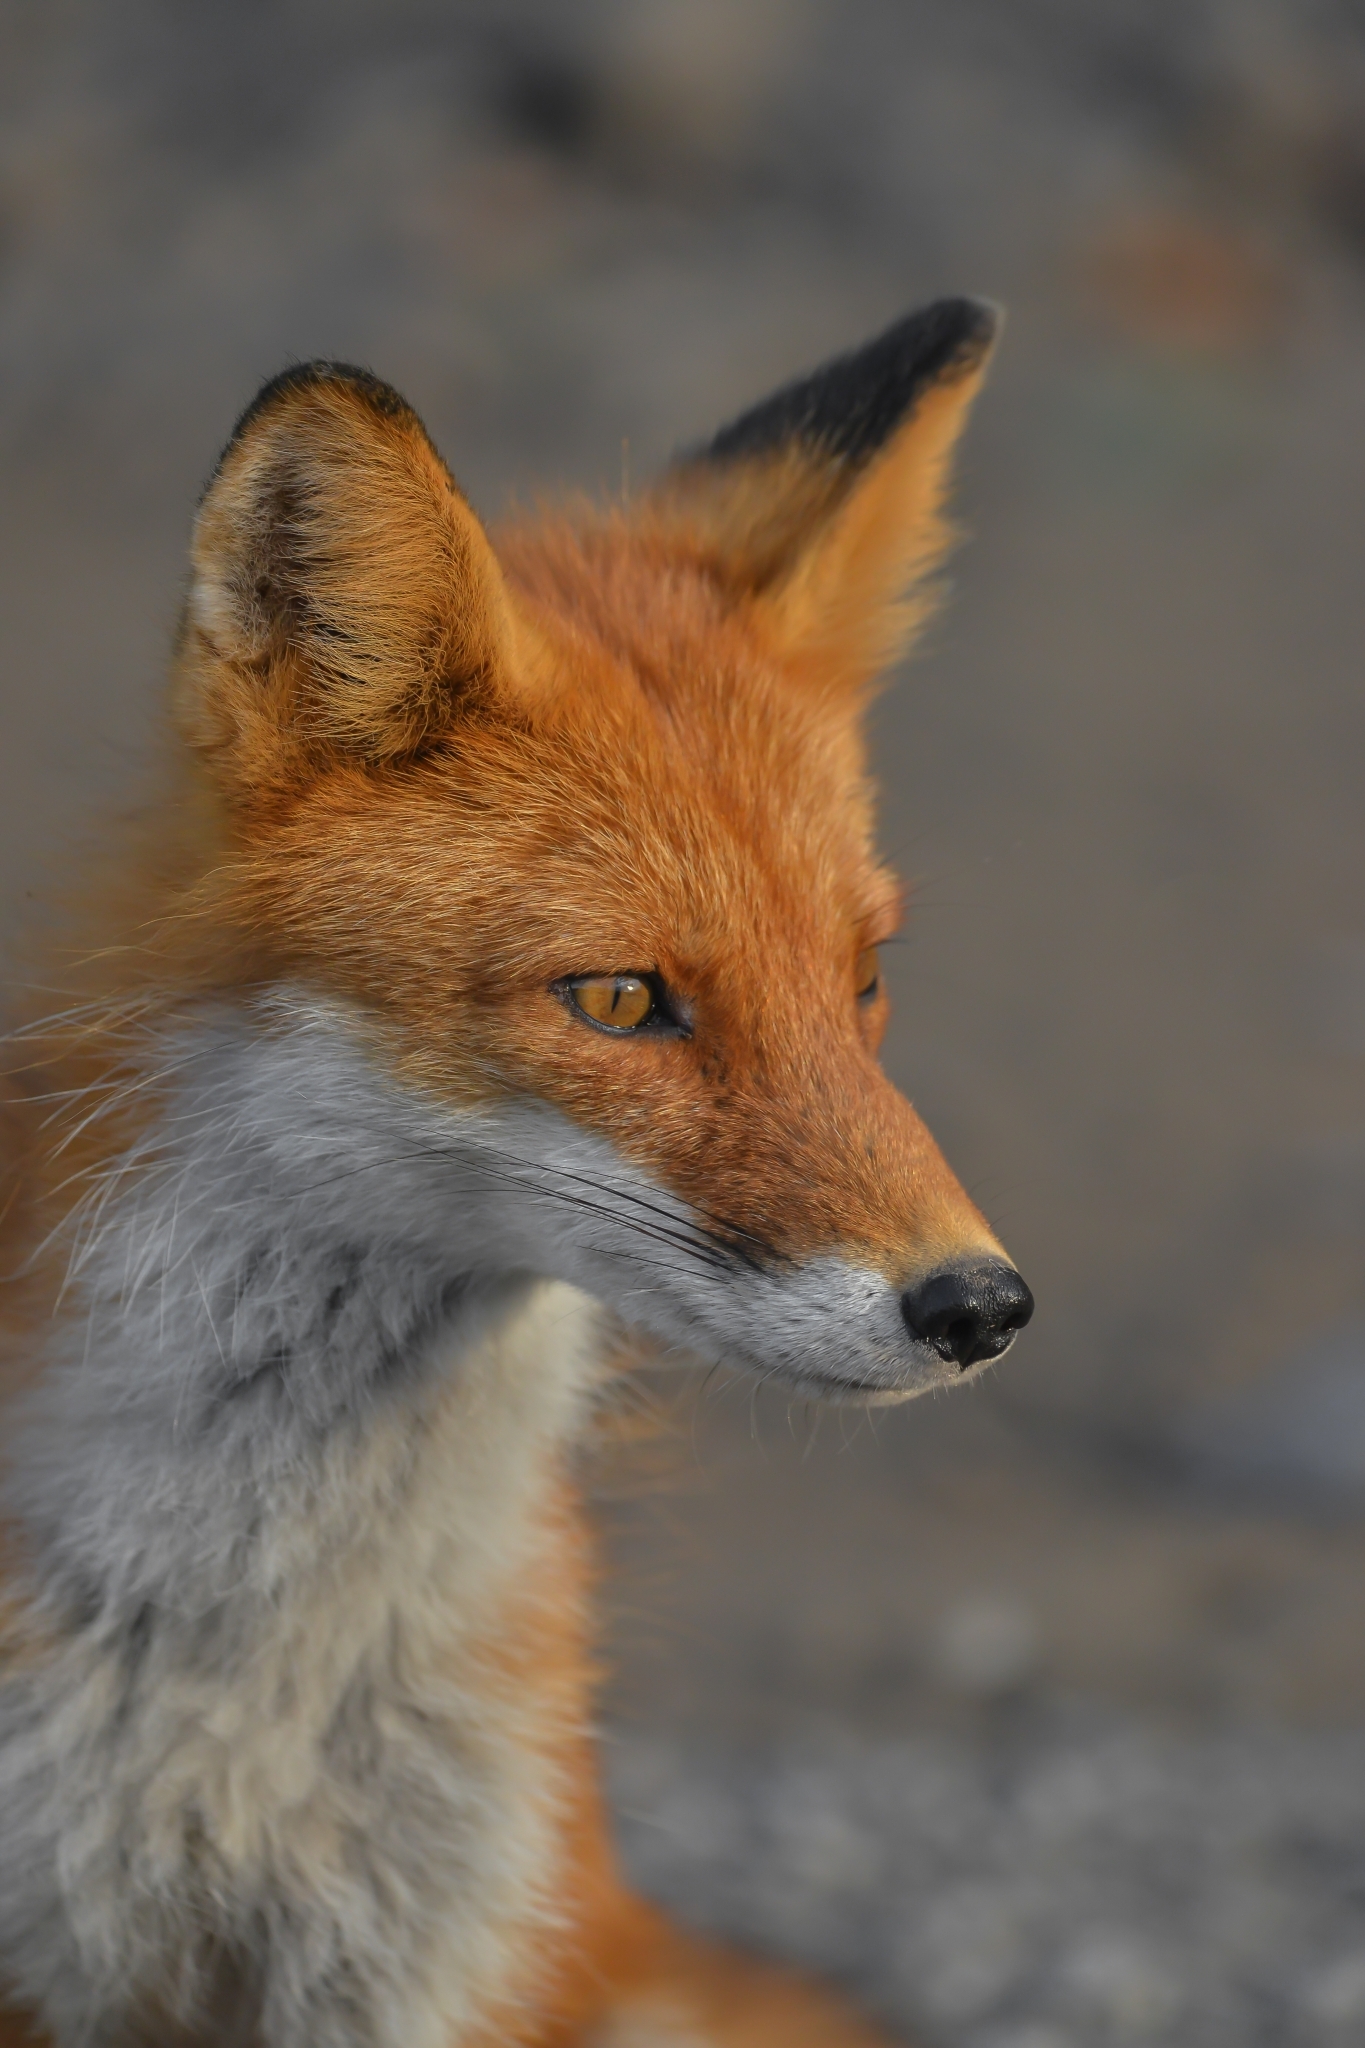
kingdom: Animalia
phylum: Chordata
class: Mammalia
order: Carnivora
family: Canidae
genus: Vulpes
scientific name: Vulpes vulpes
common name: Red fox
